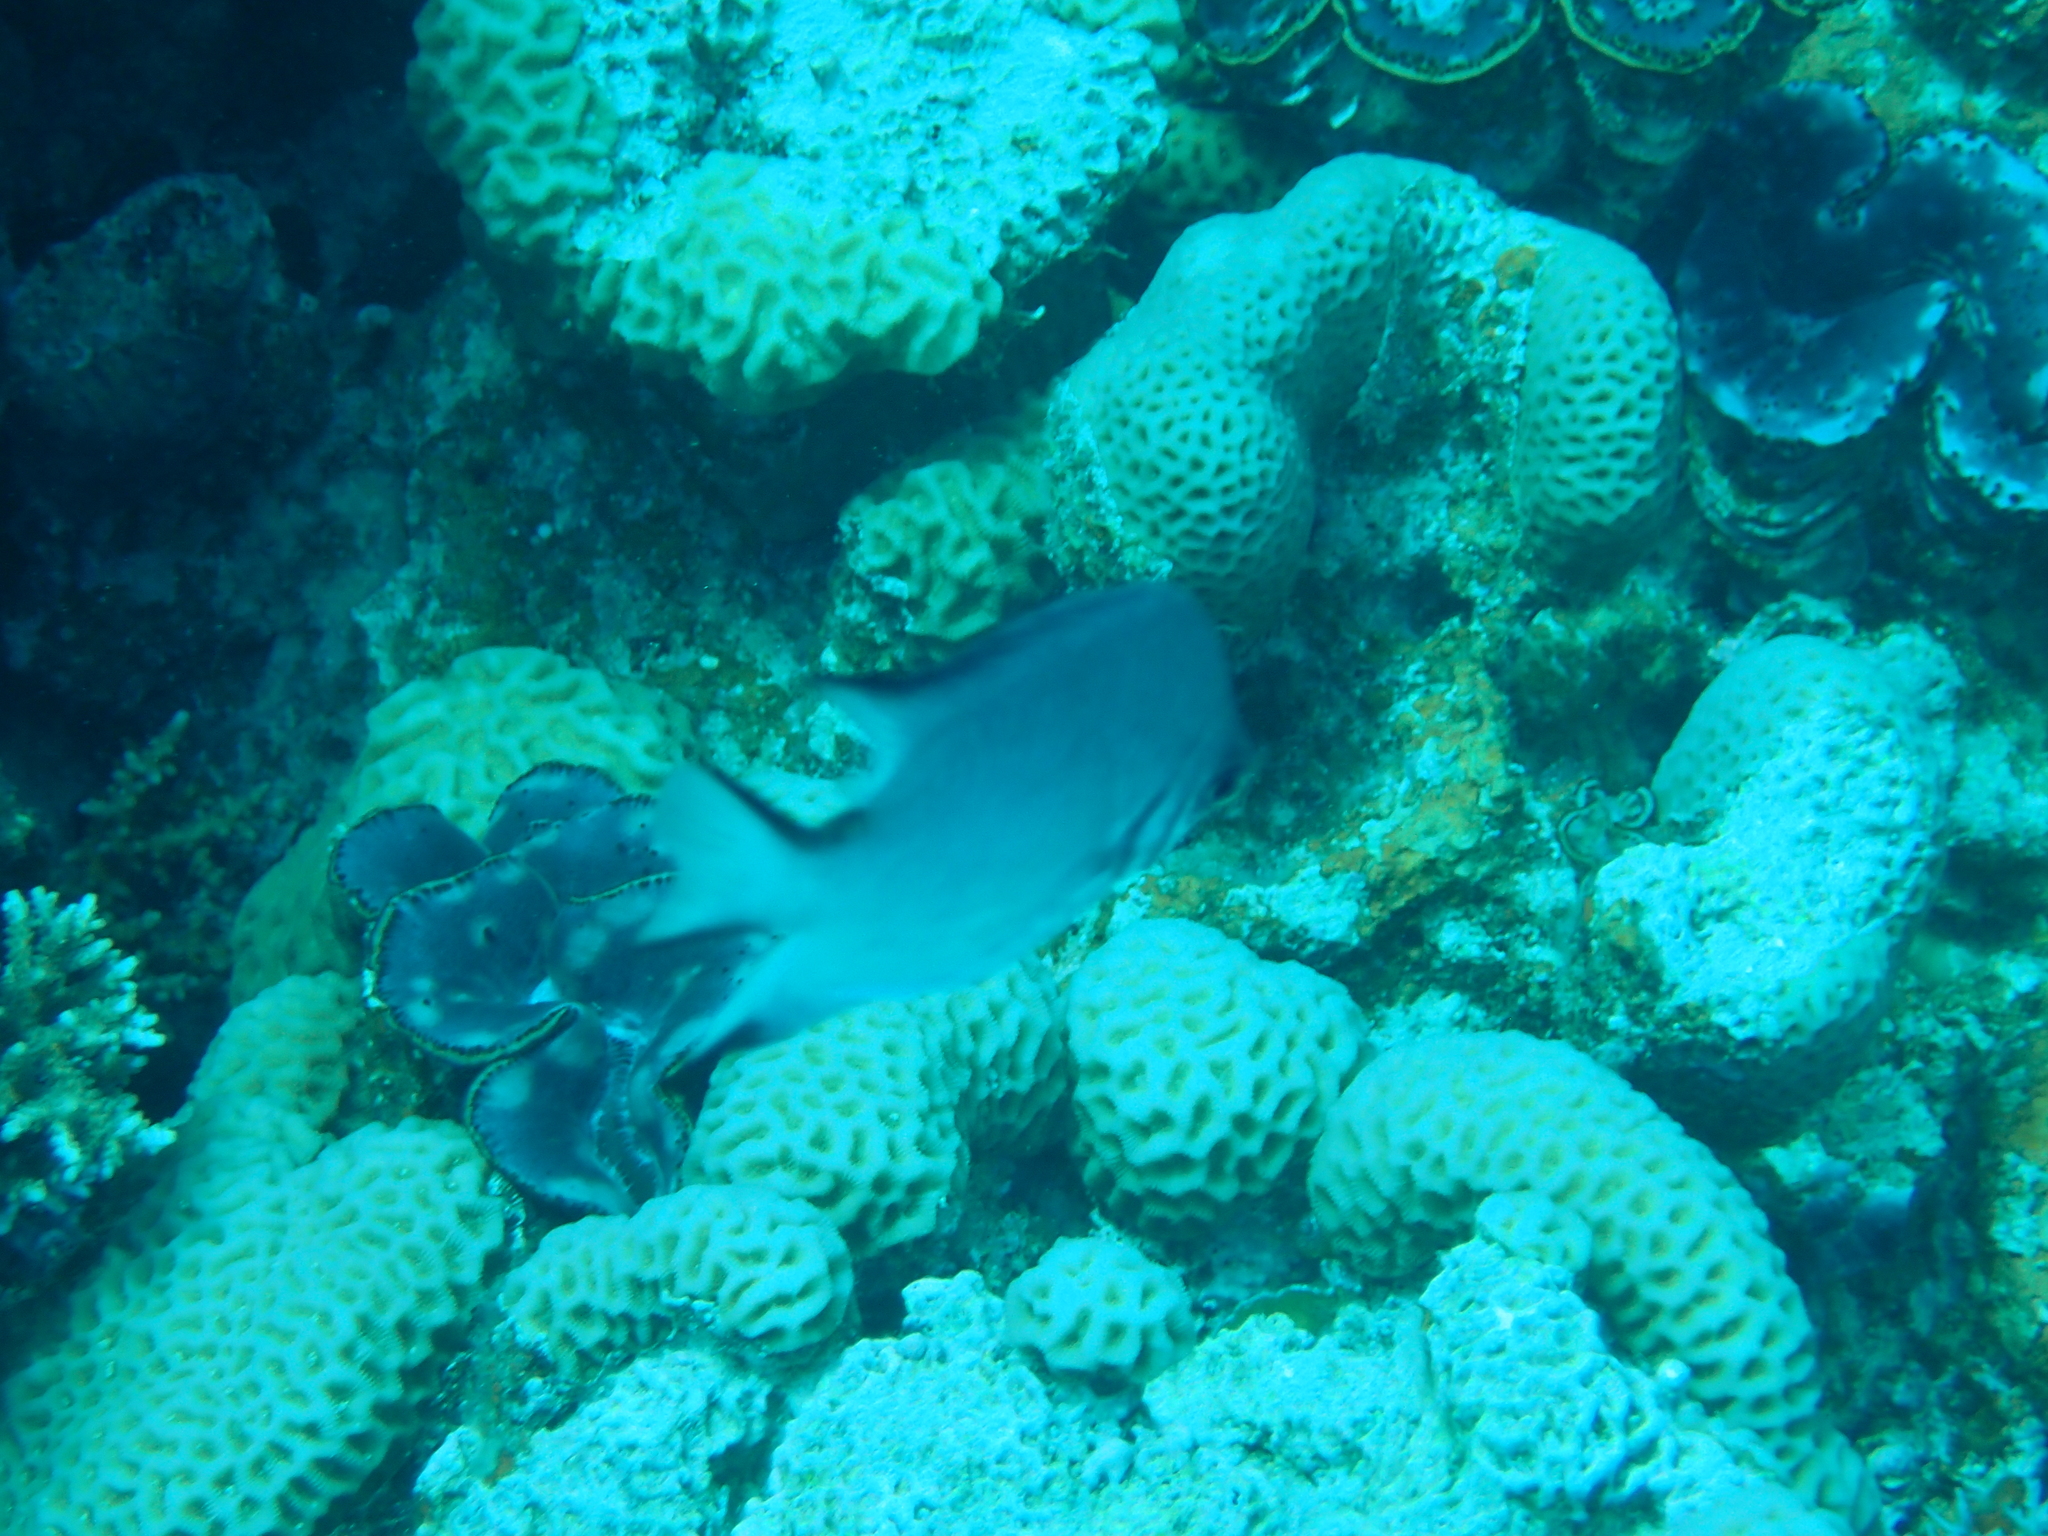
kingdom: Animalia
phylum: Chordata
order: Perciformes
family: Pomacentridae
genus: Amblyglyphidodon
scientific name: Amblyglyphidodon indicus
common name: Maldives damselfish
